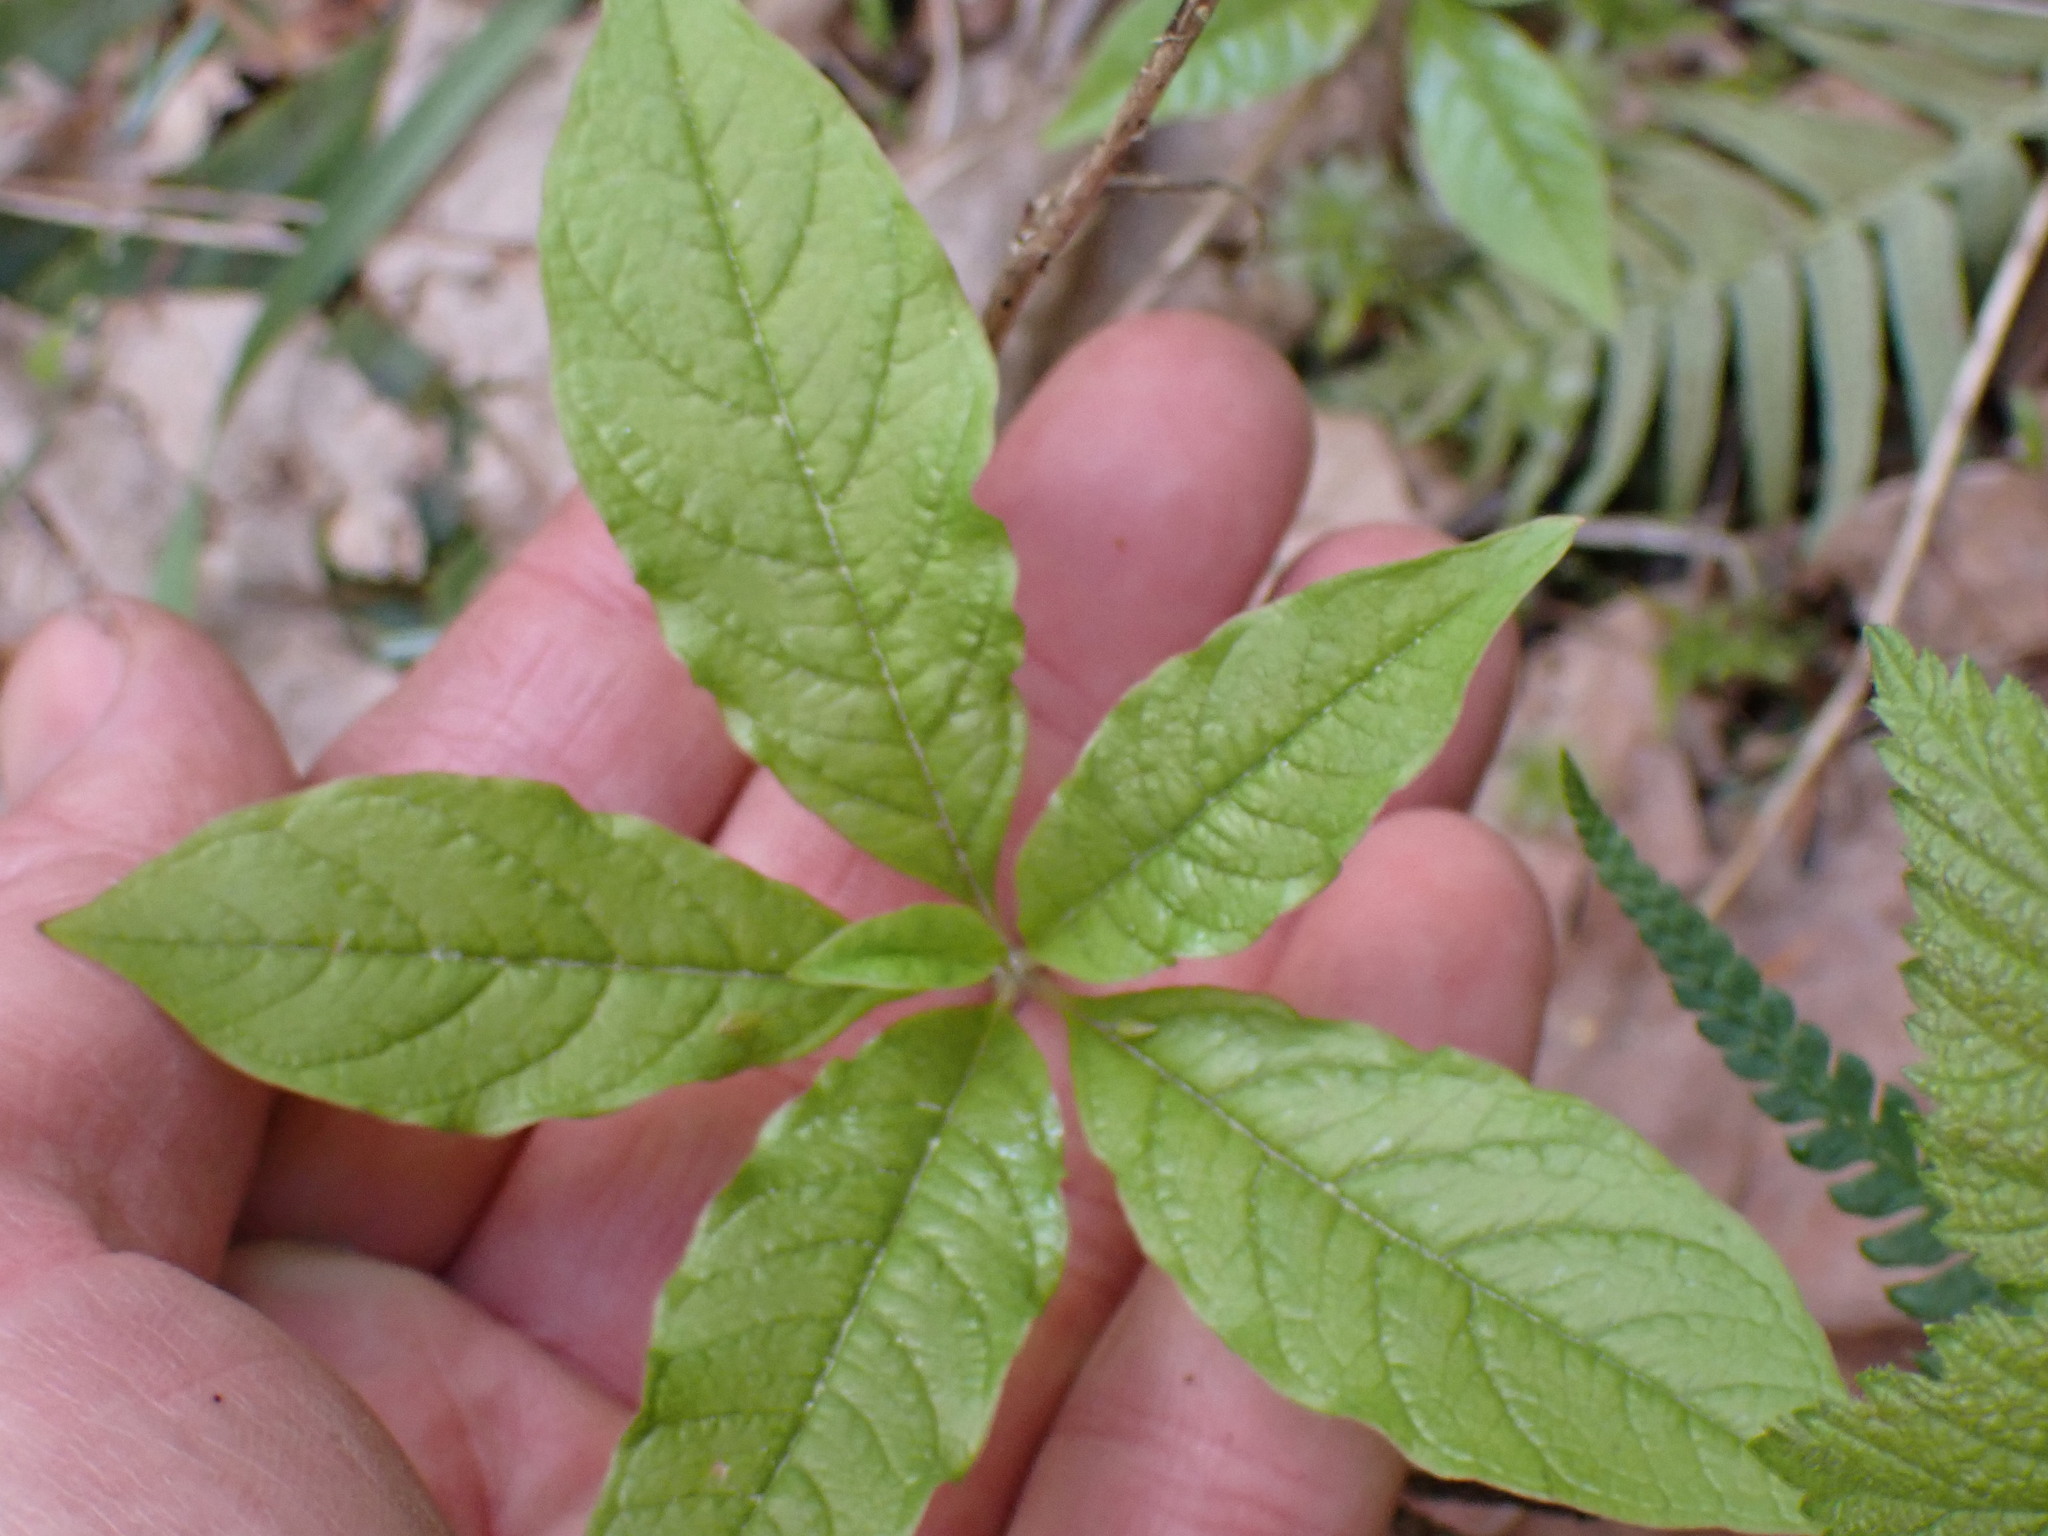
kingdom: Plantae
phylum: Tracheophyta
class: Magnoliopsida
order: Ericales
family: Primulaceae
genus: Lysimachia
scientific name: Lysimachia latifolia
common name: Pacific starflower
